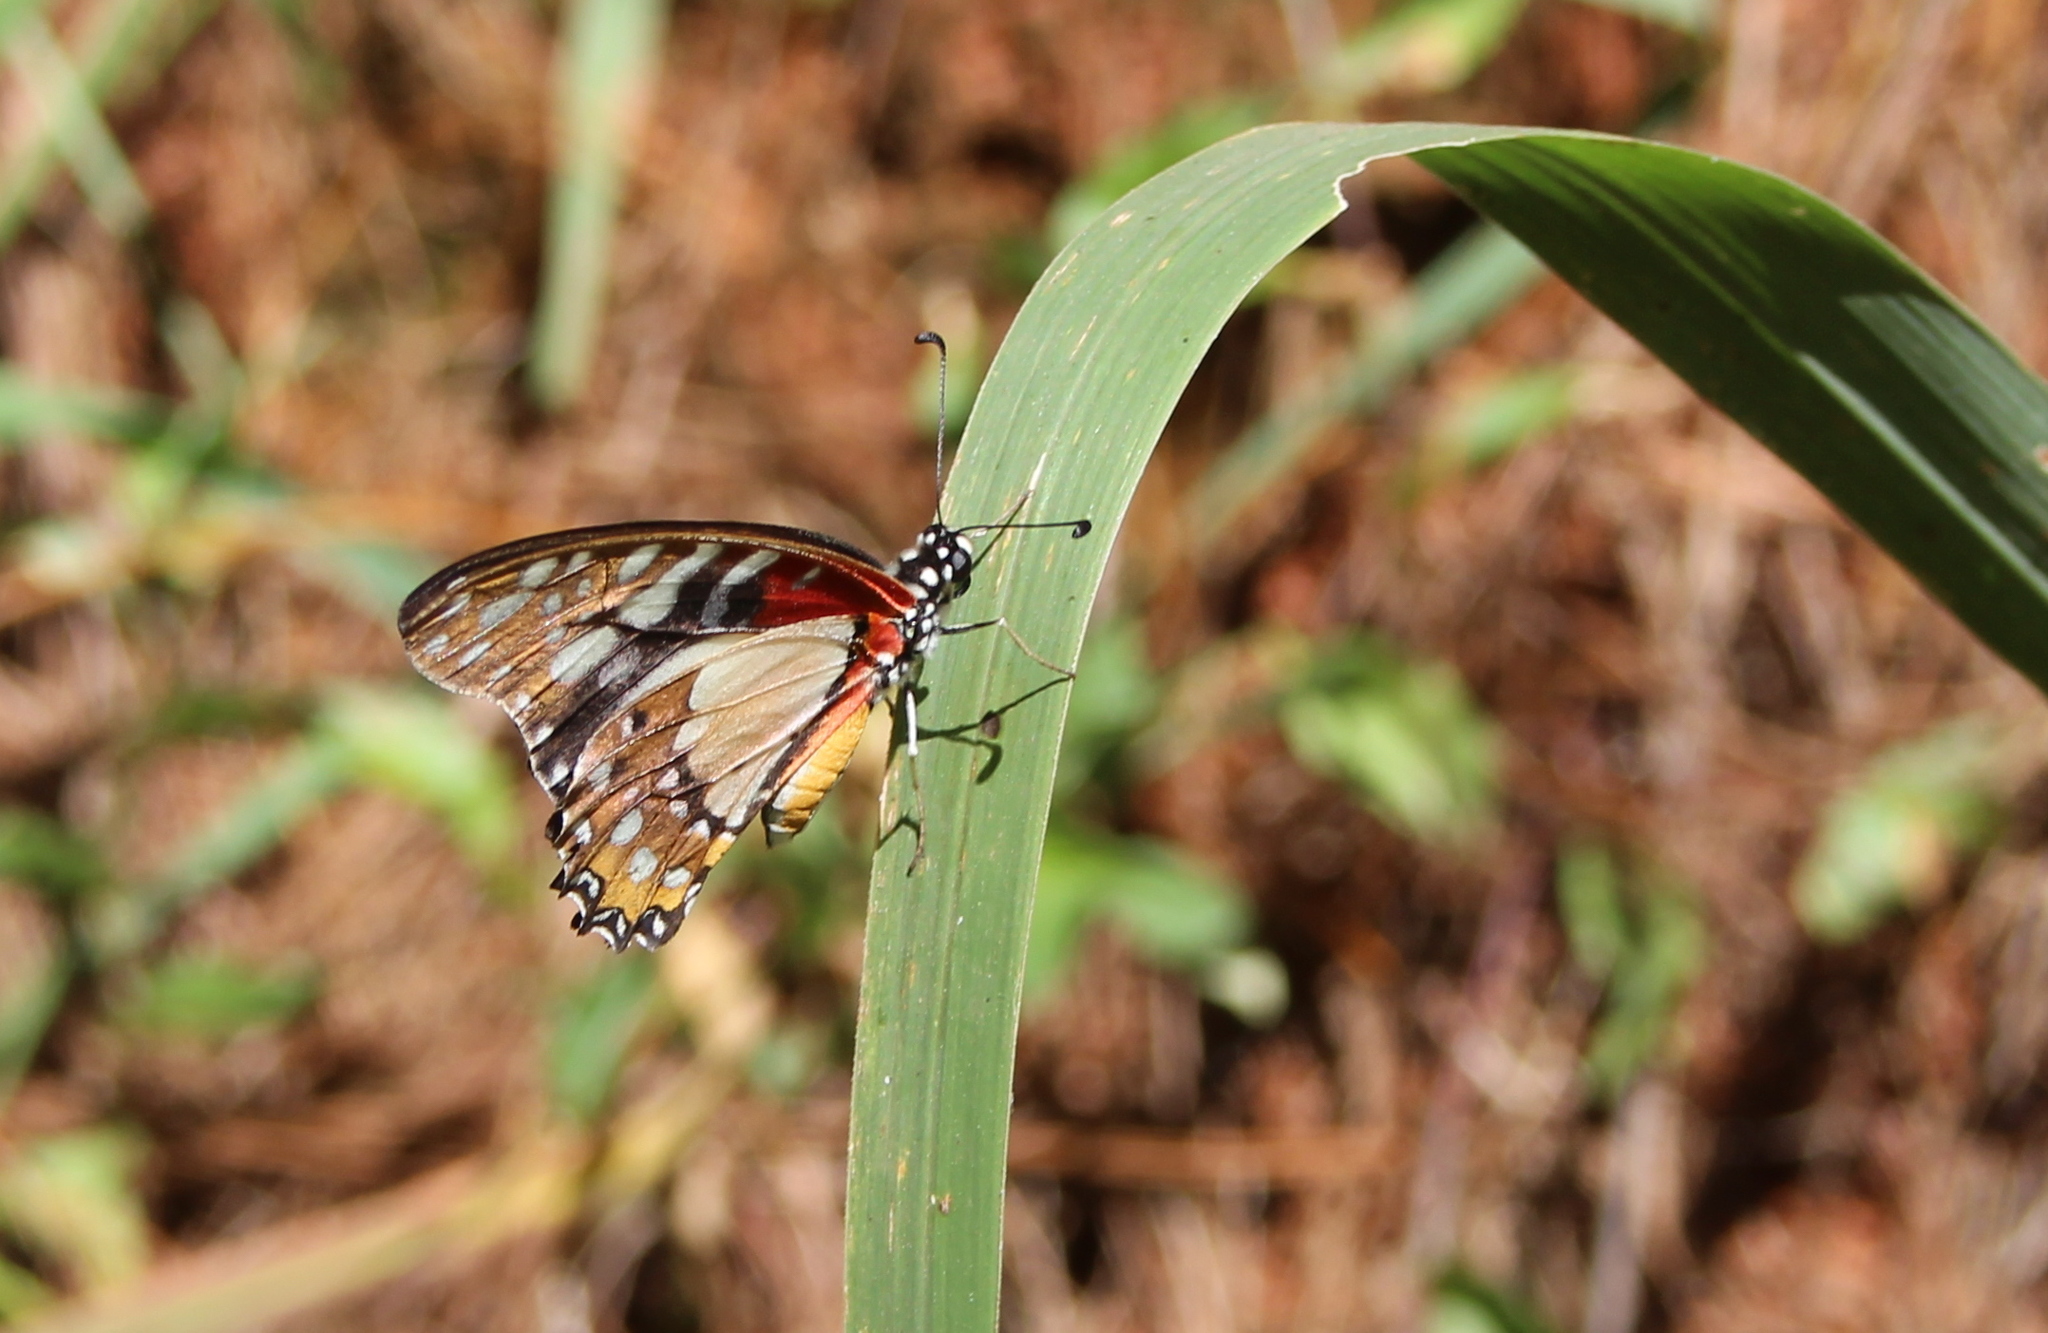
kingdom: Animalia
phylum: Arthropoda
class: Insecta
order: Lepidoptera
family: Papilionidae
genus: Graphium
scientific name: Graphium angolanus
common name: Angola white-lady swordtail
